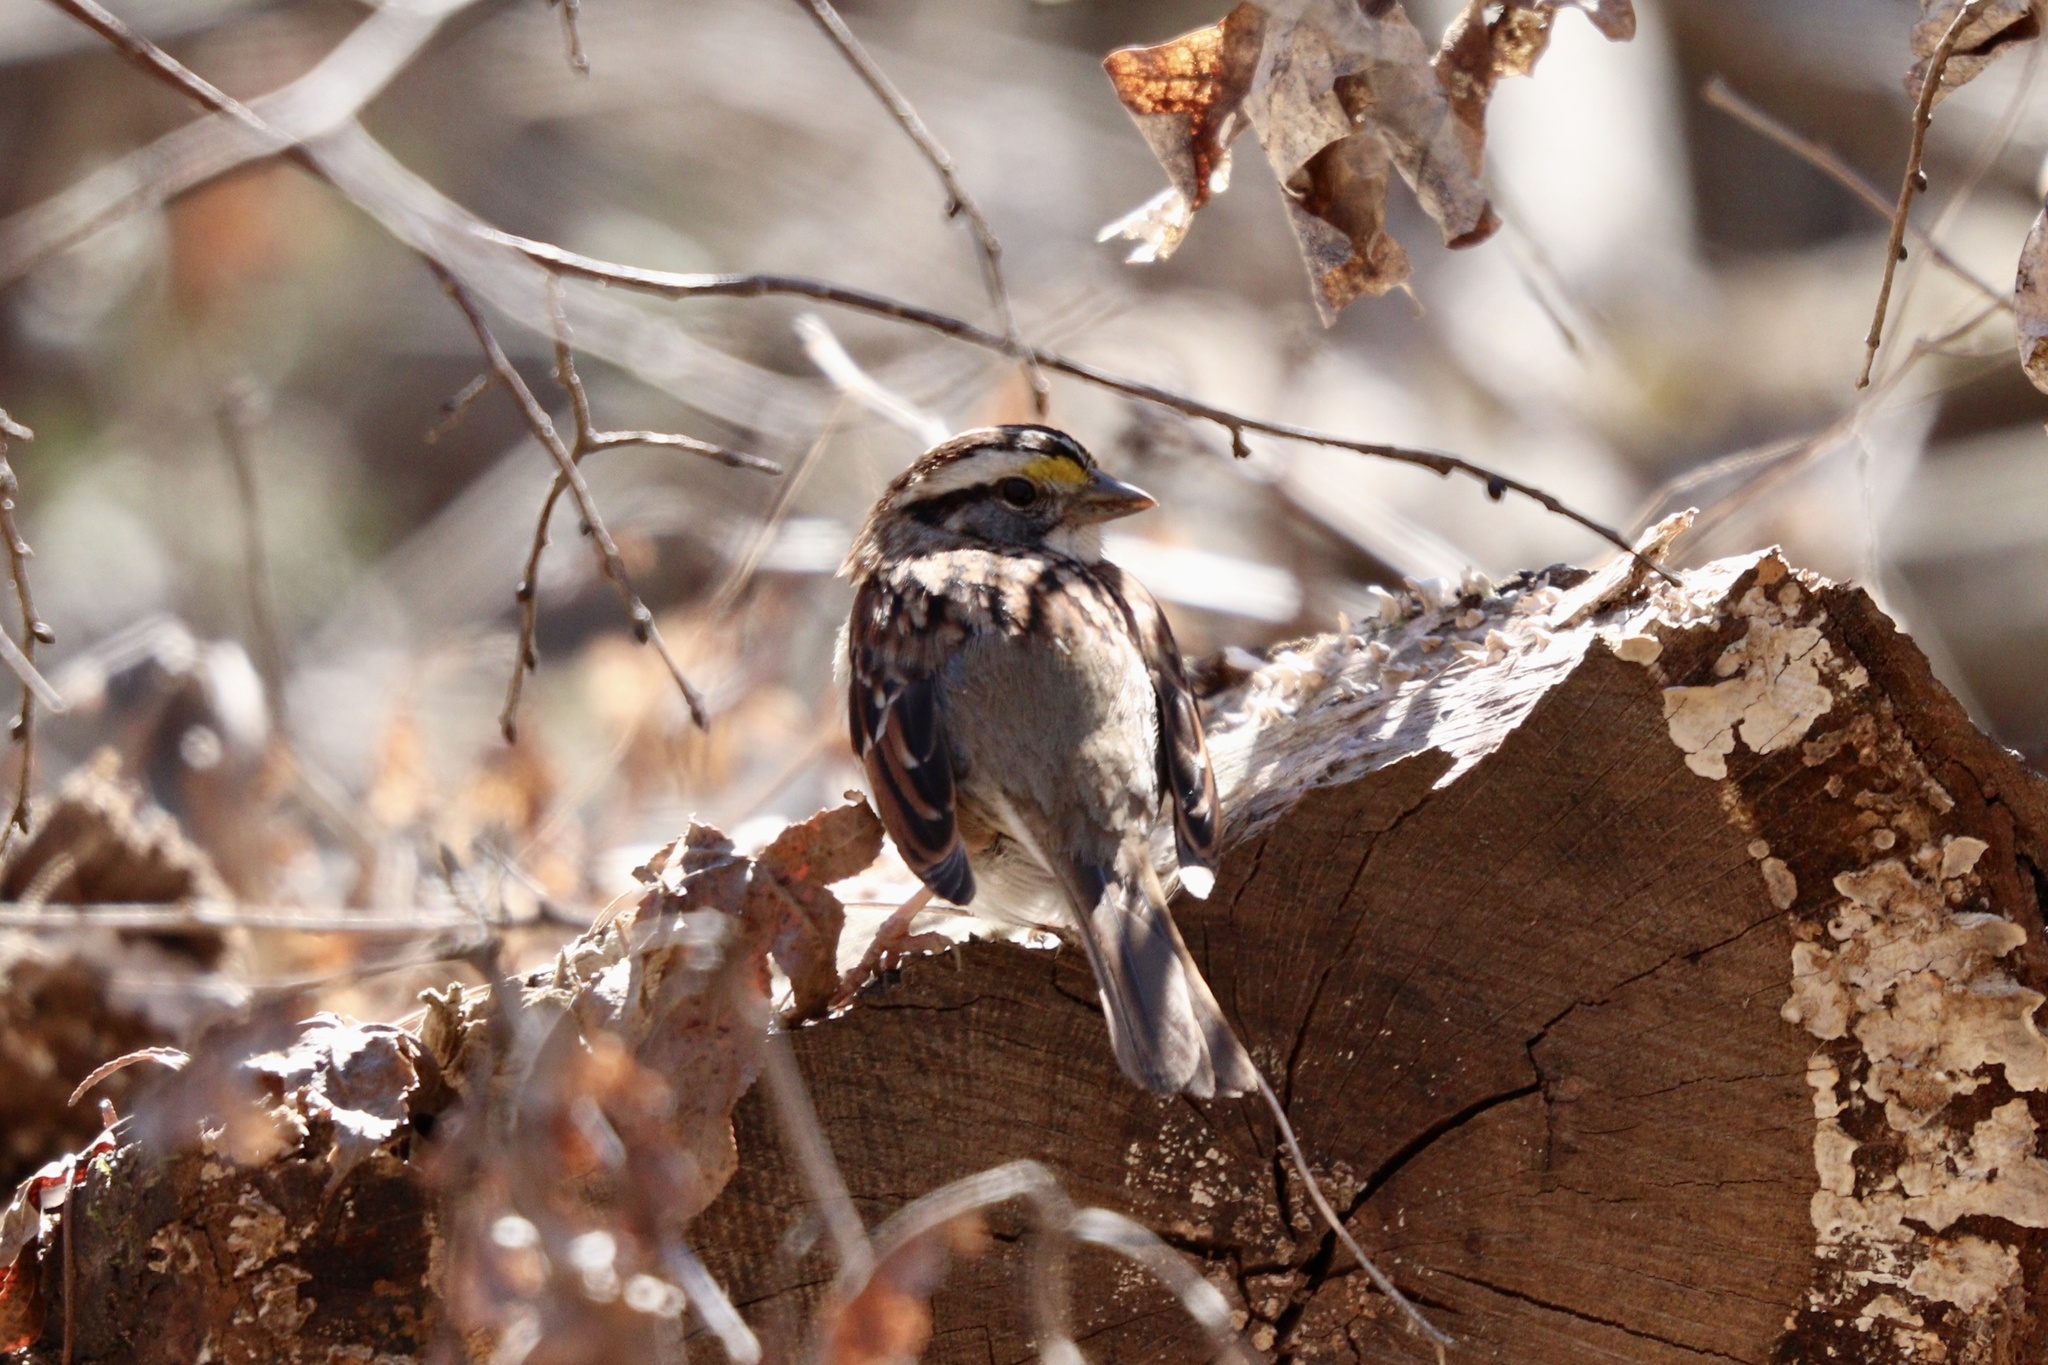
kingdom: Animalia
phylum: Chordata
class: Aves
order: Passeriformes
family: Passerellidae
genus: Zonotrichia
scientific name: Zonotrichia albicollis
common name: White-throated sparrow
